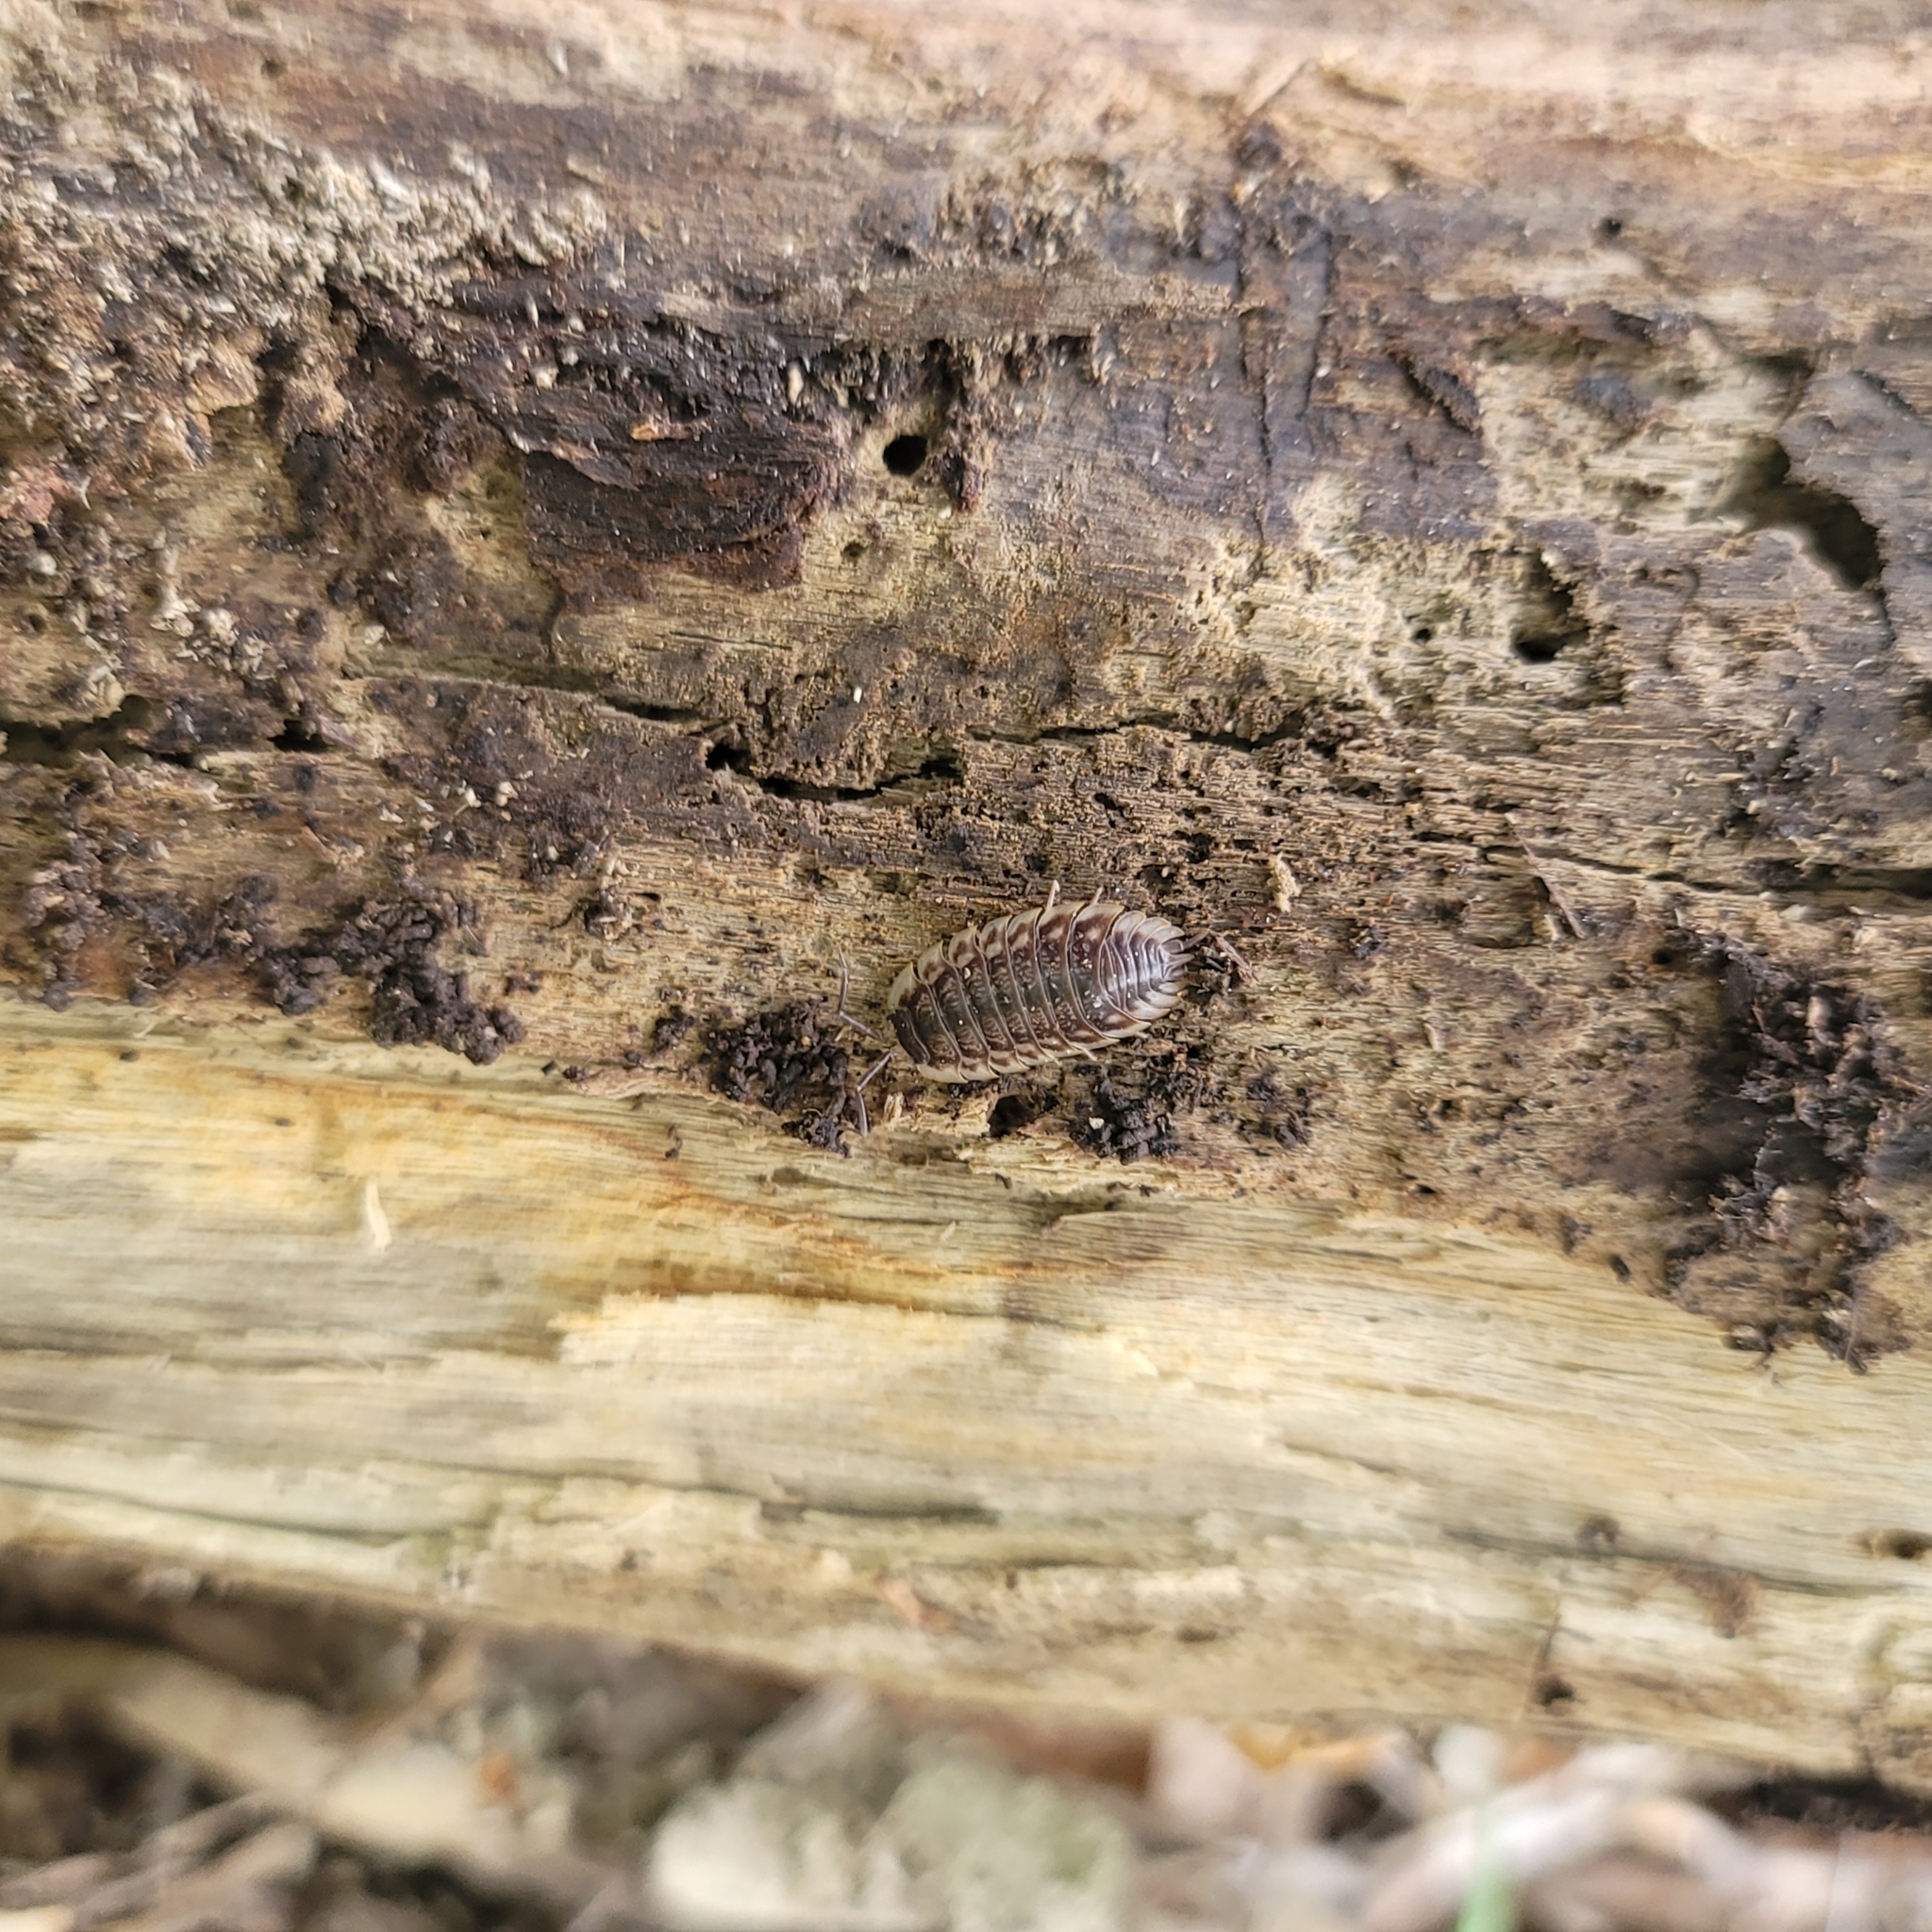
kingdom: Animalia
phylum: Arthropoda
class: Malacostraca
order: Isopoda
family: Oniscidae
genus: Oniscus
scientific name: Oniscus asellus
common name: Common shiny woodlouse
